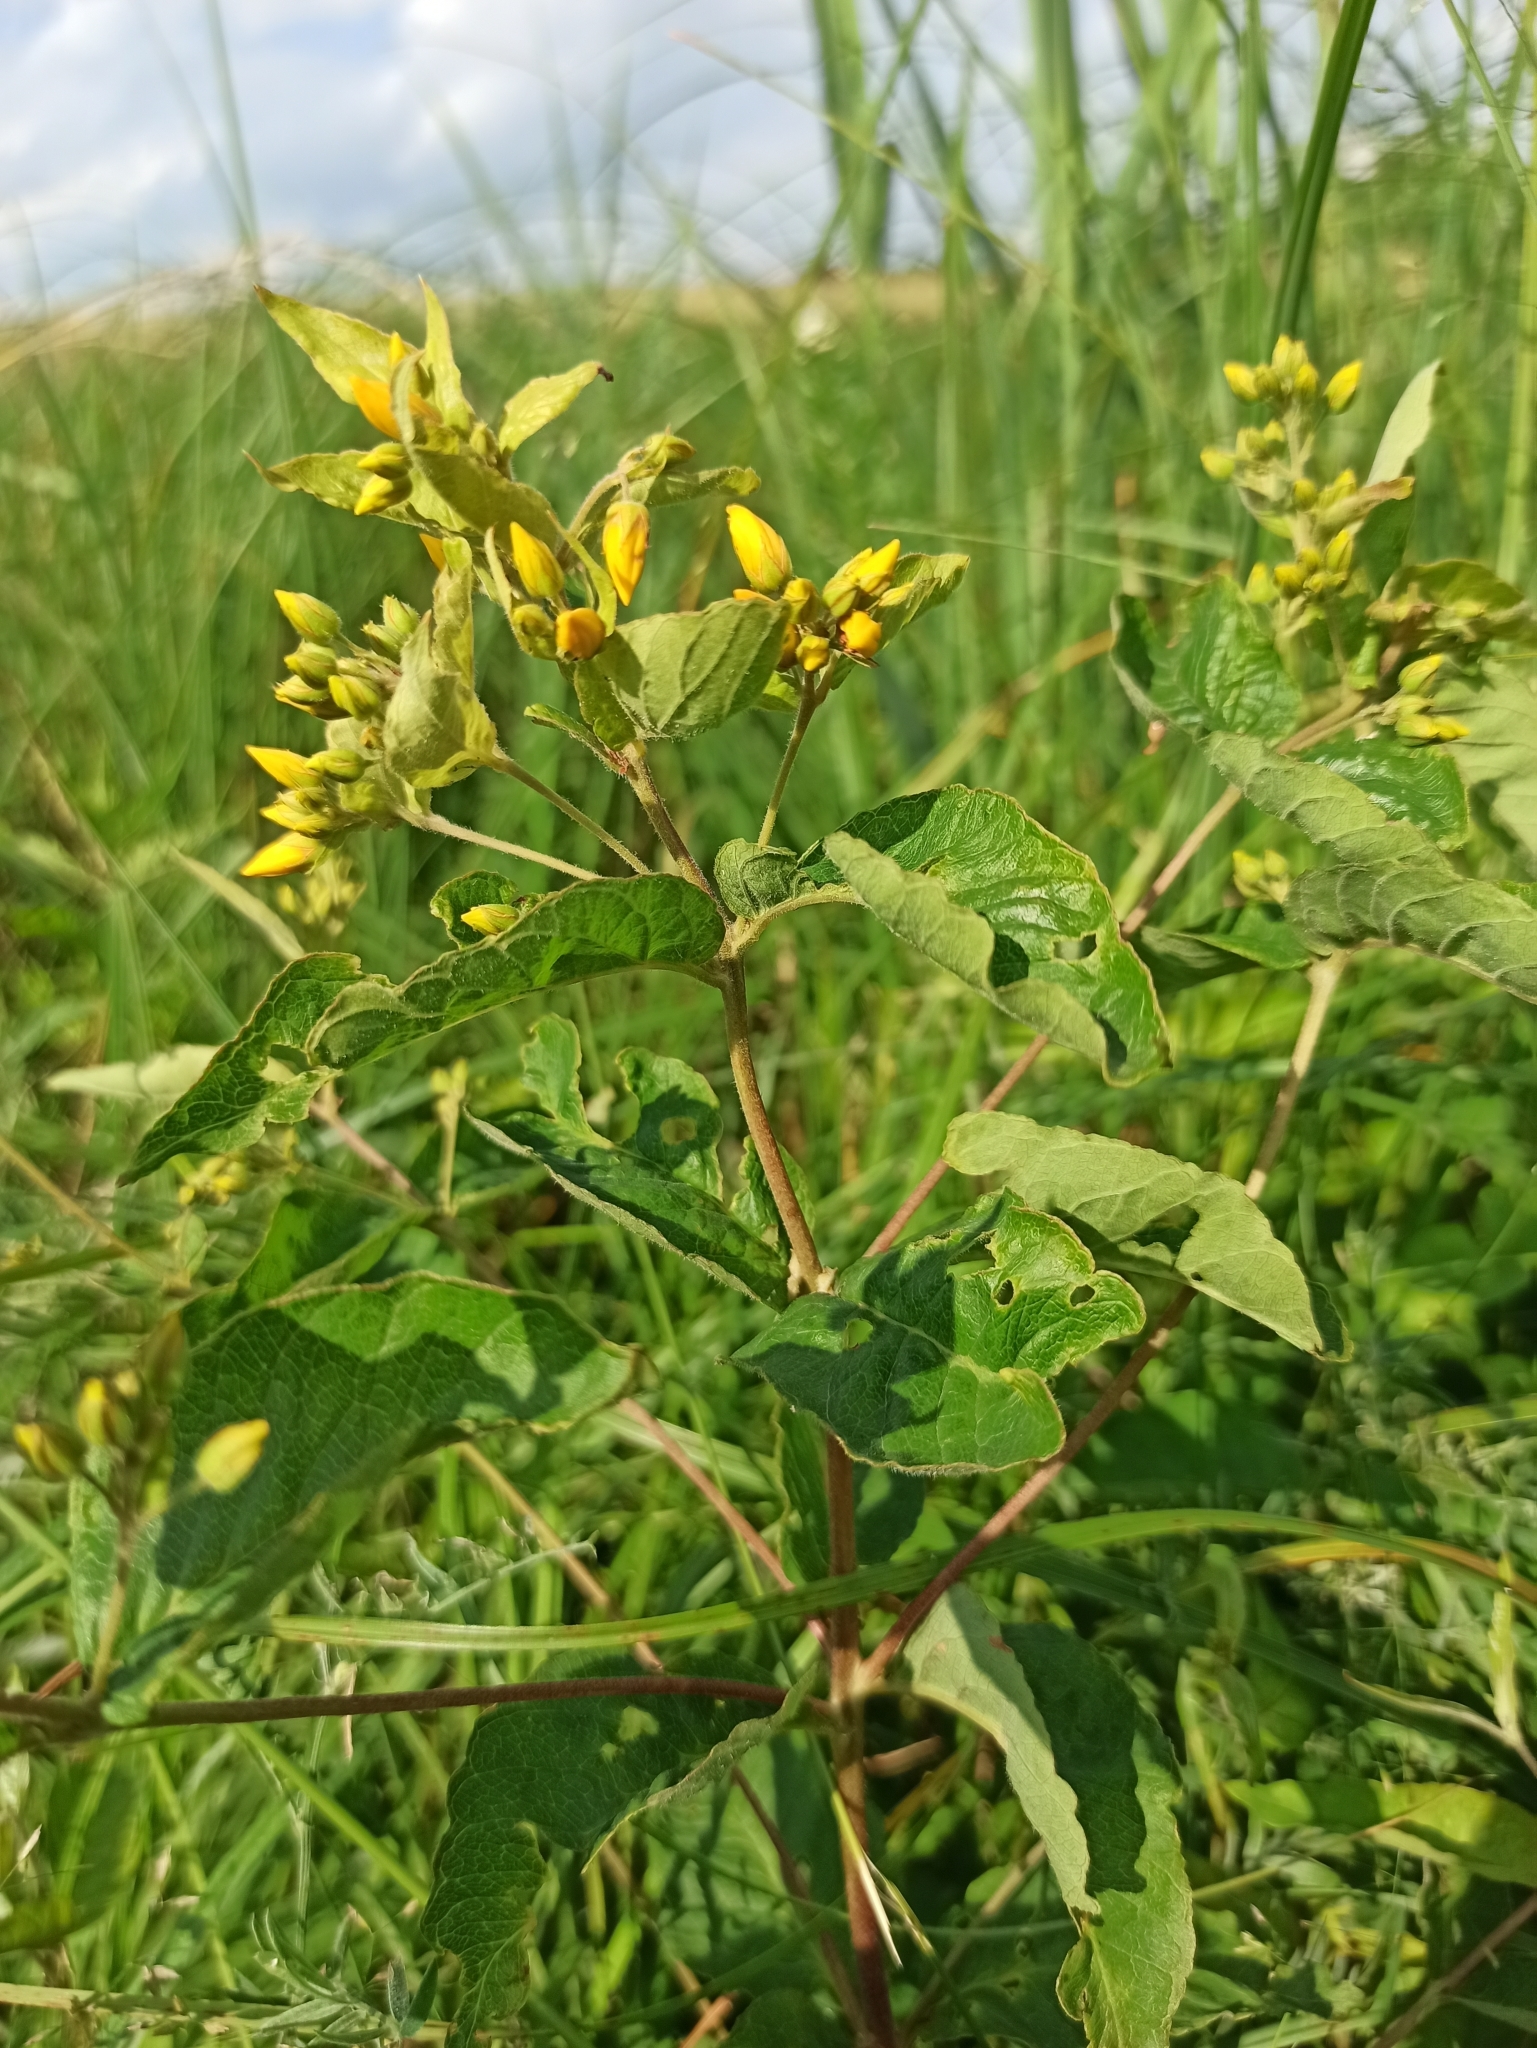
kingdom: Plantae
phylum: Tracheophyta
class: Magnoliopsida
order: Ericales
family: Primulaceae
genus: Lysimachia
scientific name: Lysimachia vulgaris
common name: Yellow loosestrife
